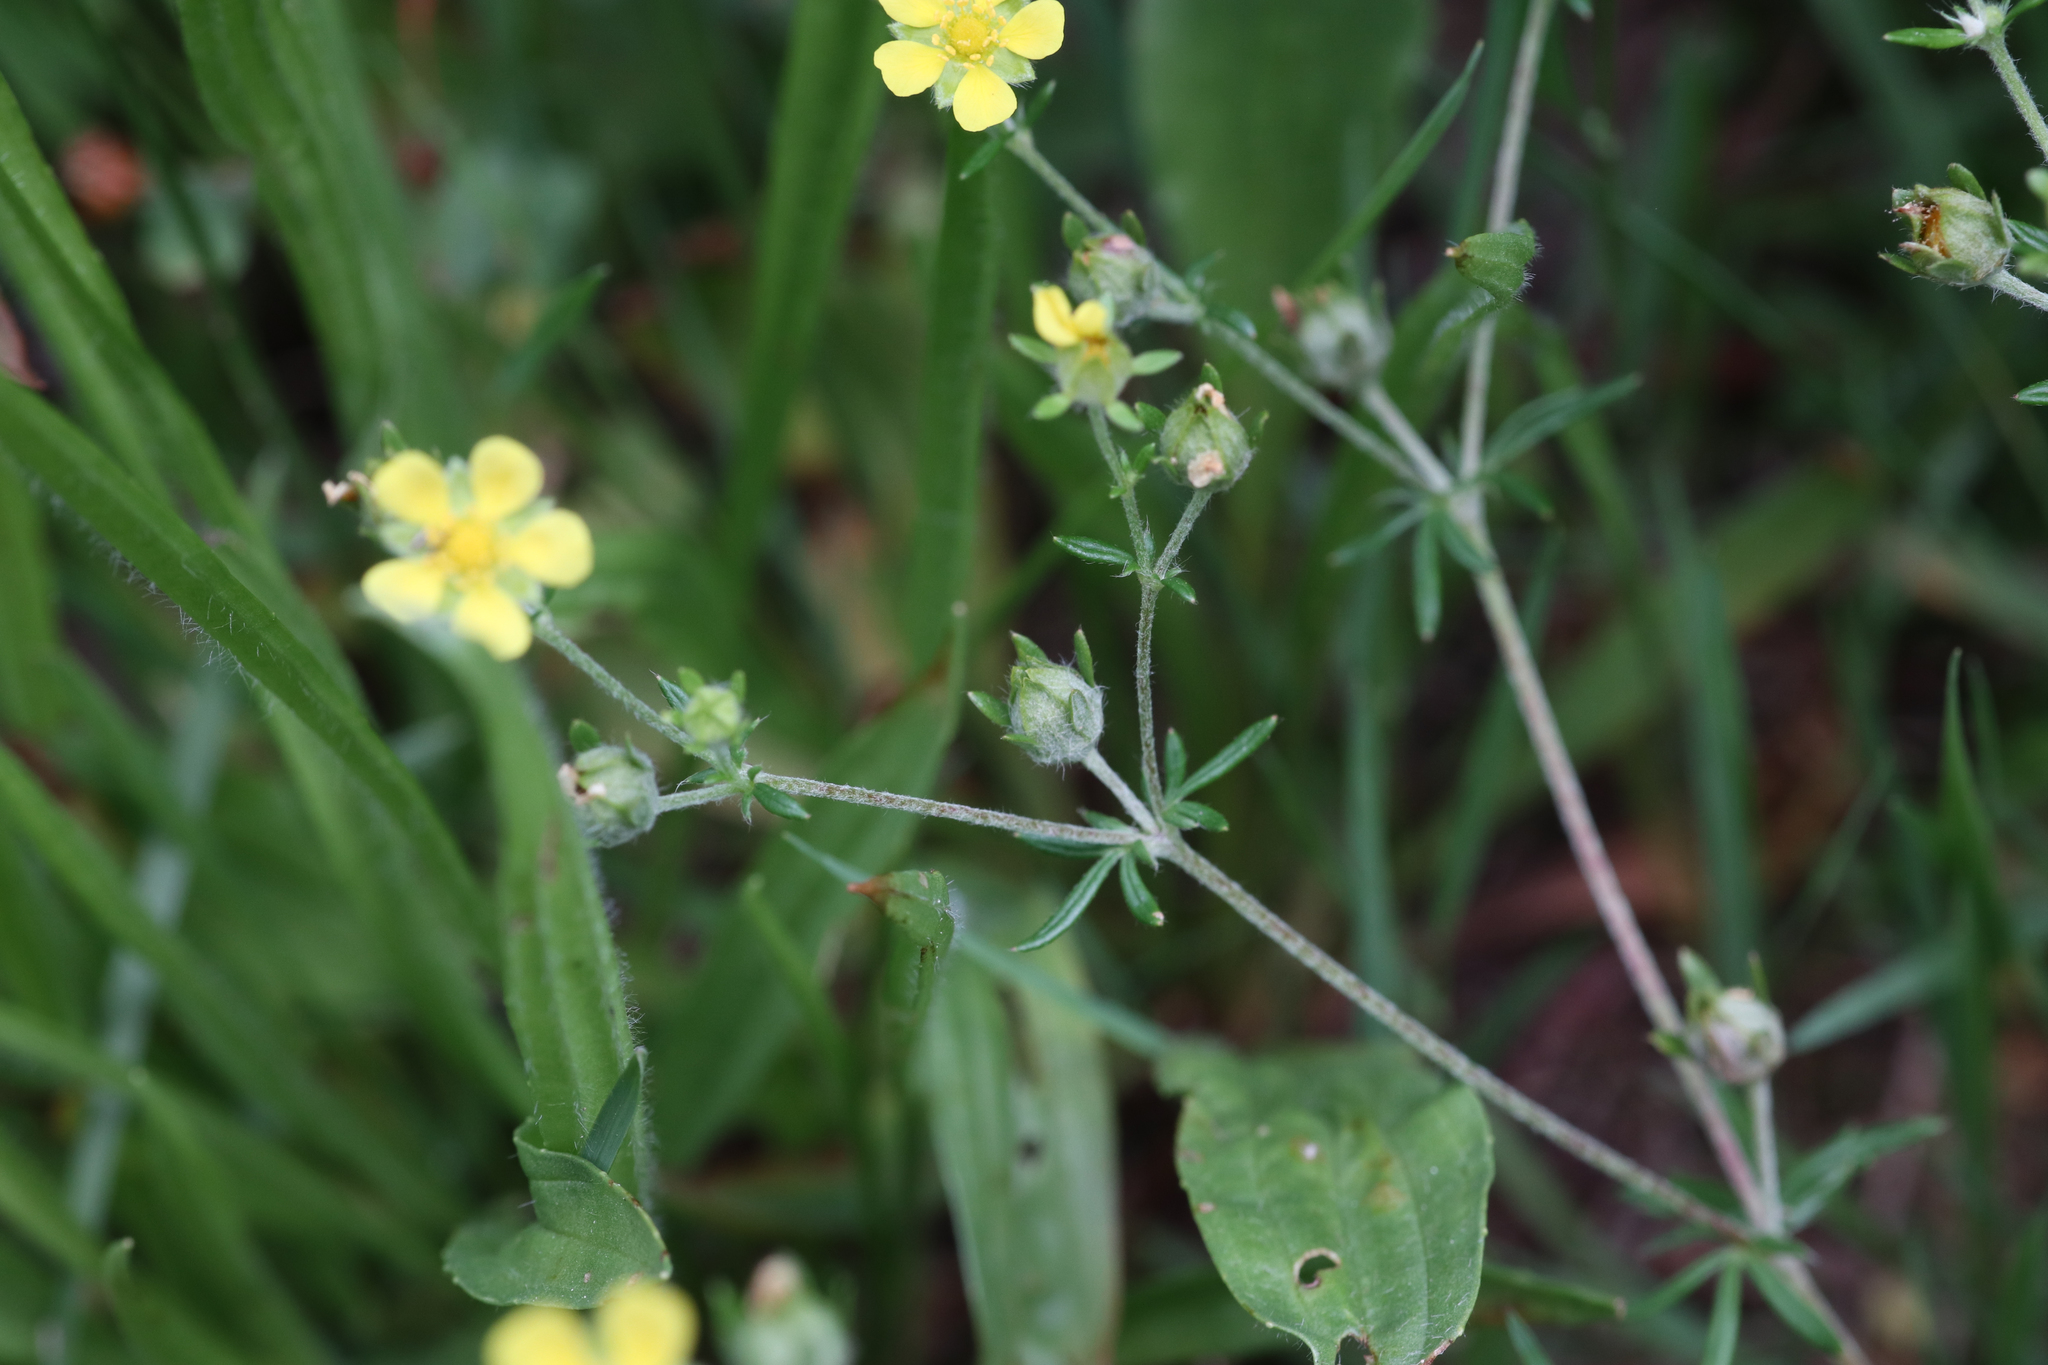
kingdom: Plantae
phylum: Tracheophyta
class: Magnoliopsida
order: Rosales
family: Rosaceae
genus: Potentilla
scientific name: Potentilla argentea
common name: Hoary cinquefoil
